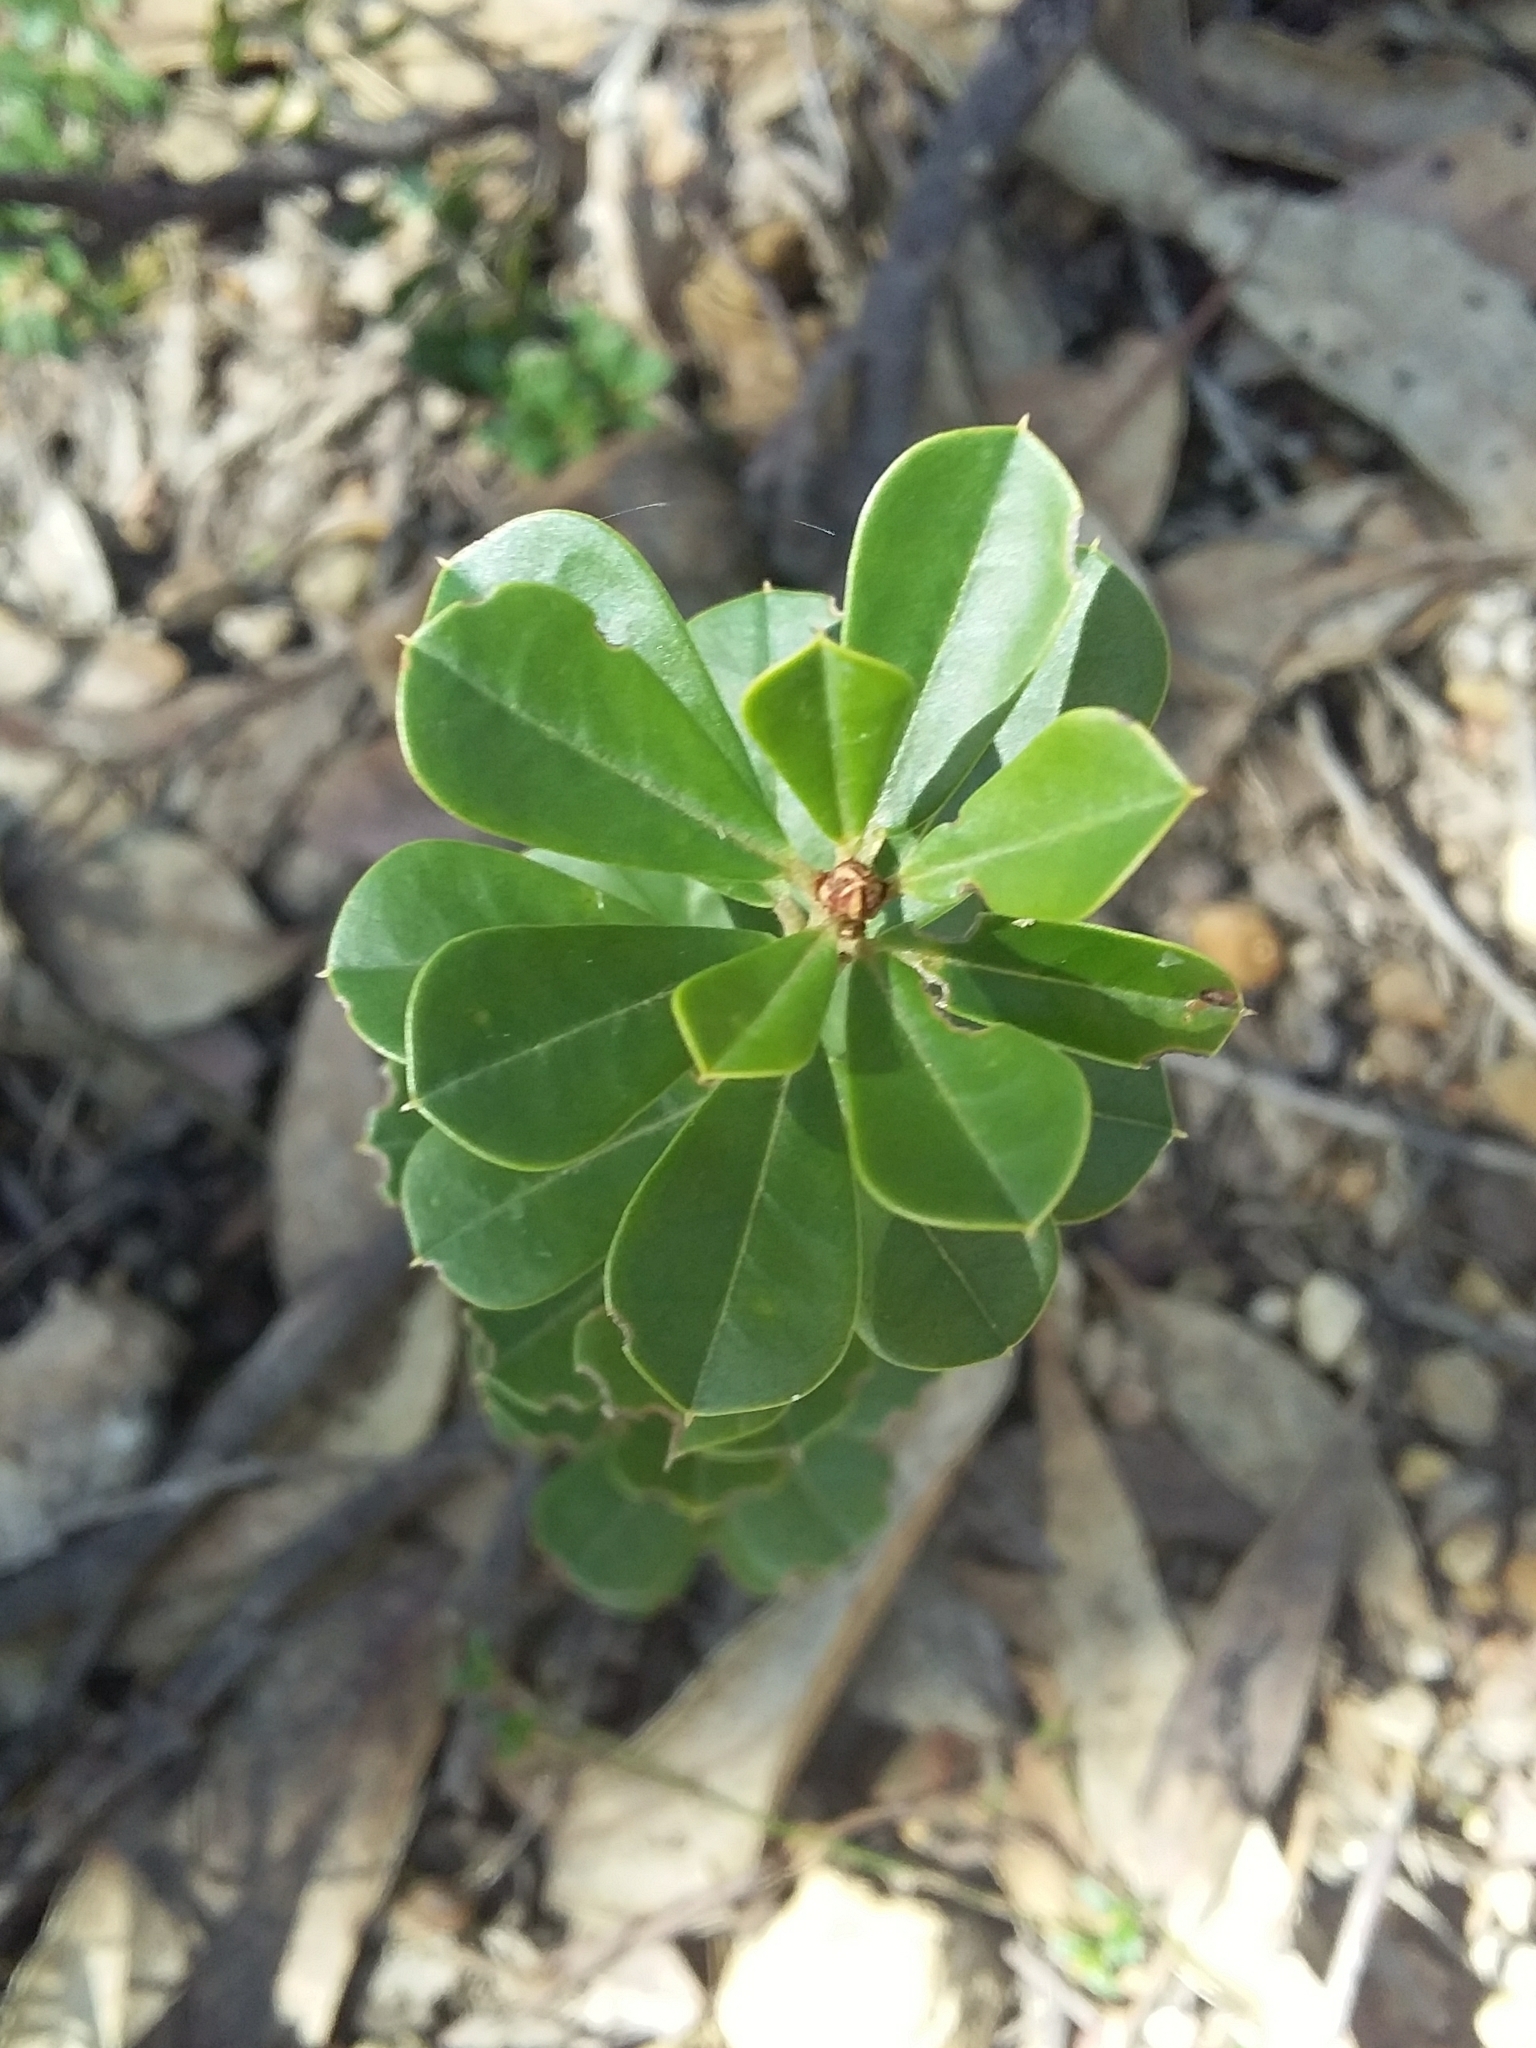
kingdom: Plantae
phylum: Tracheophyta
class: Magnoliopsida
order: Fabales
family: Fabaceae
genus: Pultenaea
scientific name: Pultenaea daphnoides
